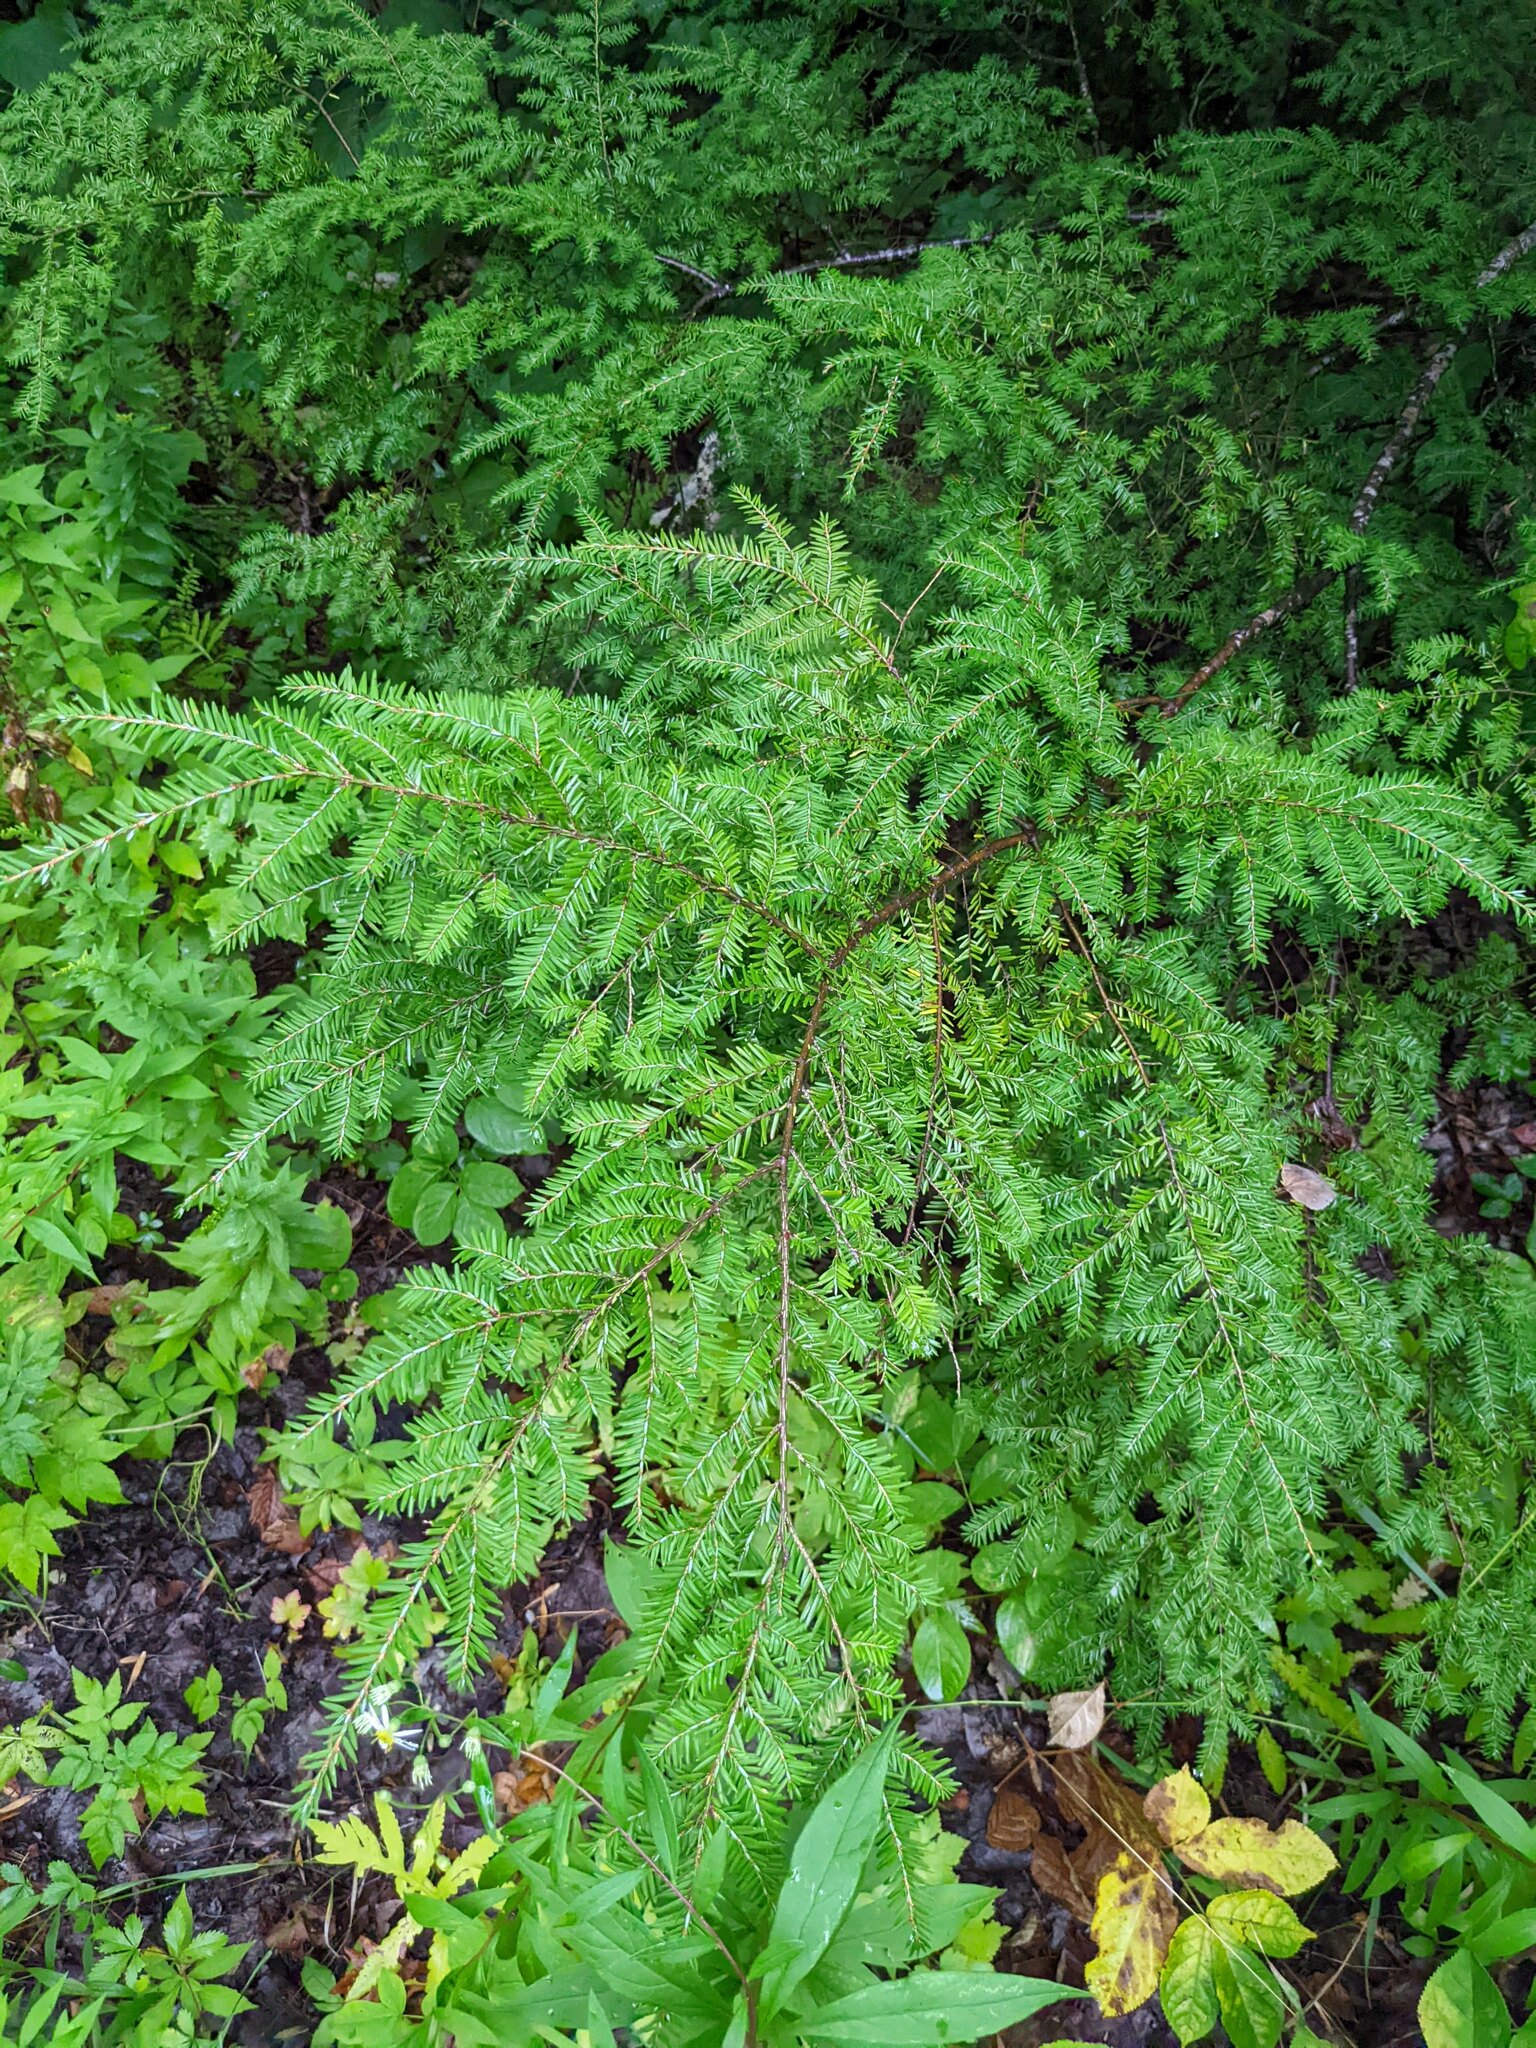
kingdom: Plantae
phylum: Tracheophyta
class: Pinopsida
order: Pinales
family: Pinaceae
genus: Tsuga
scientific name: Tsuga canadensis
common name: Eastern hemlock
